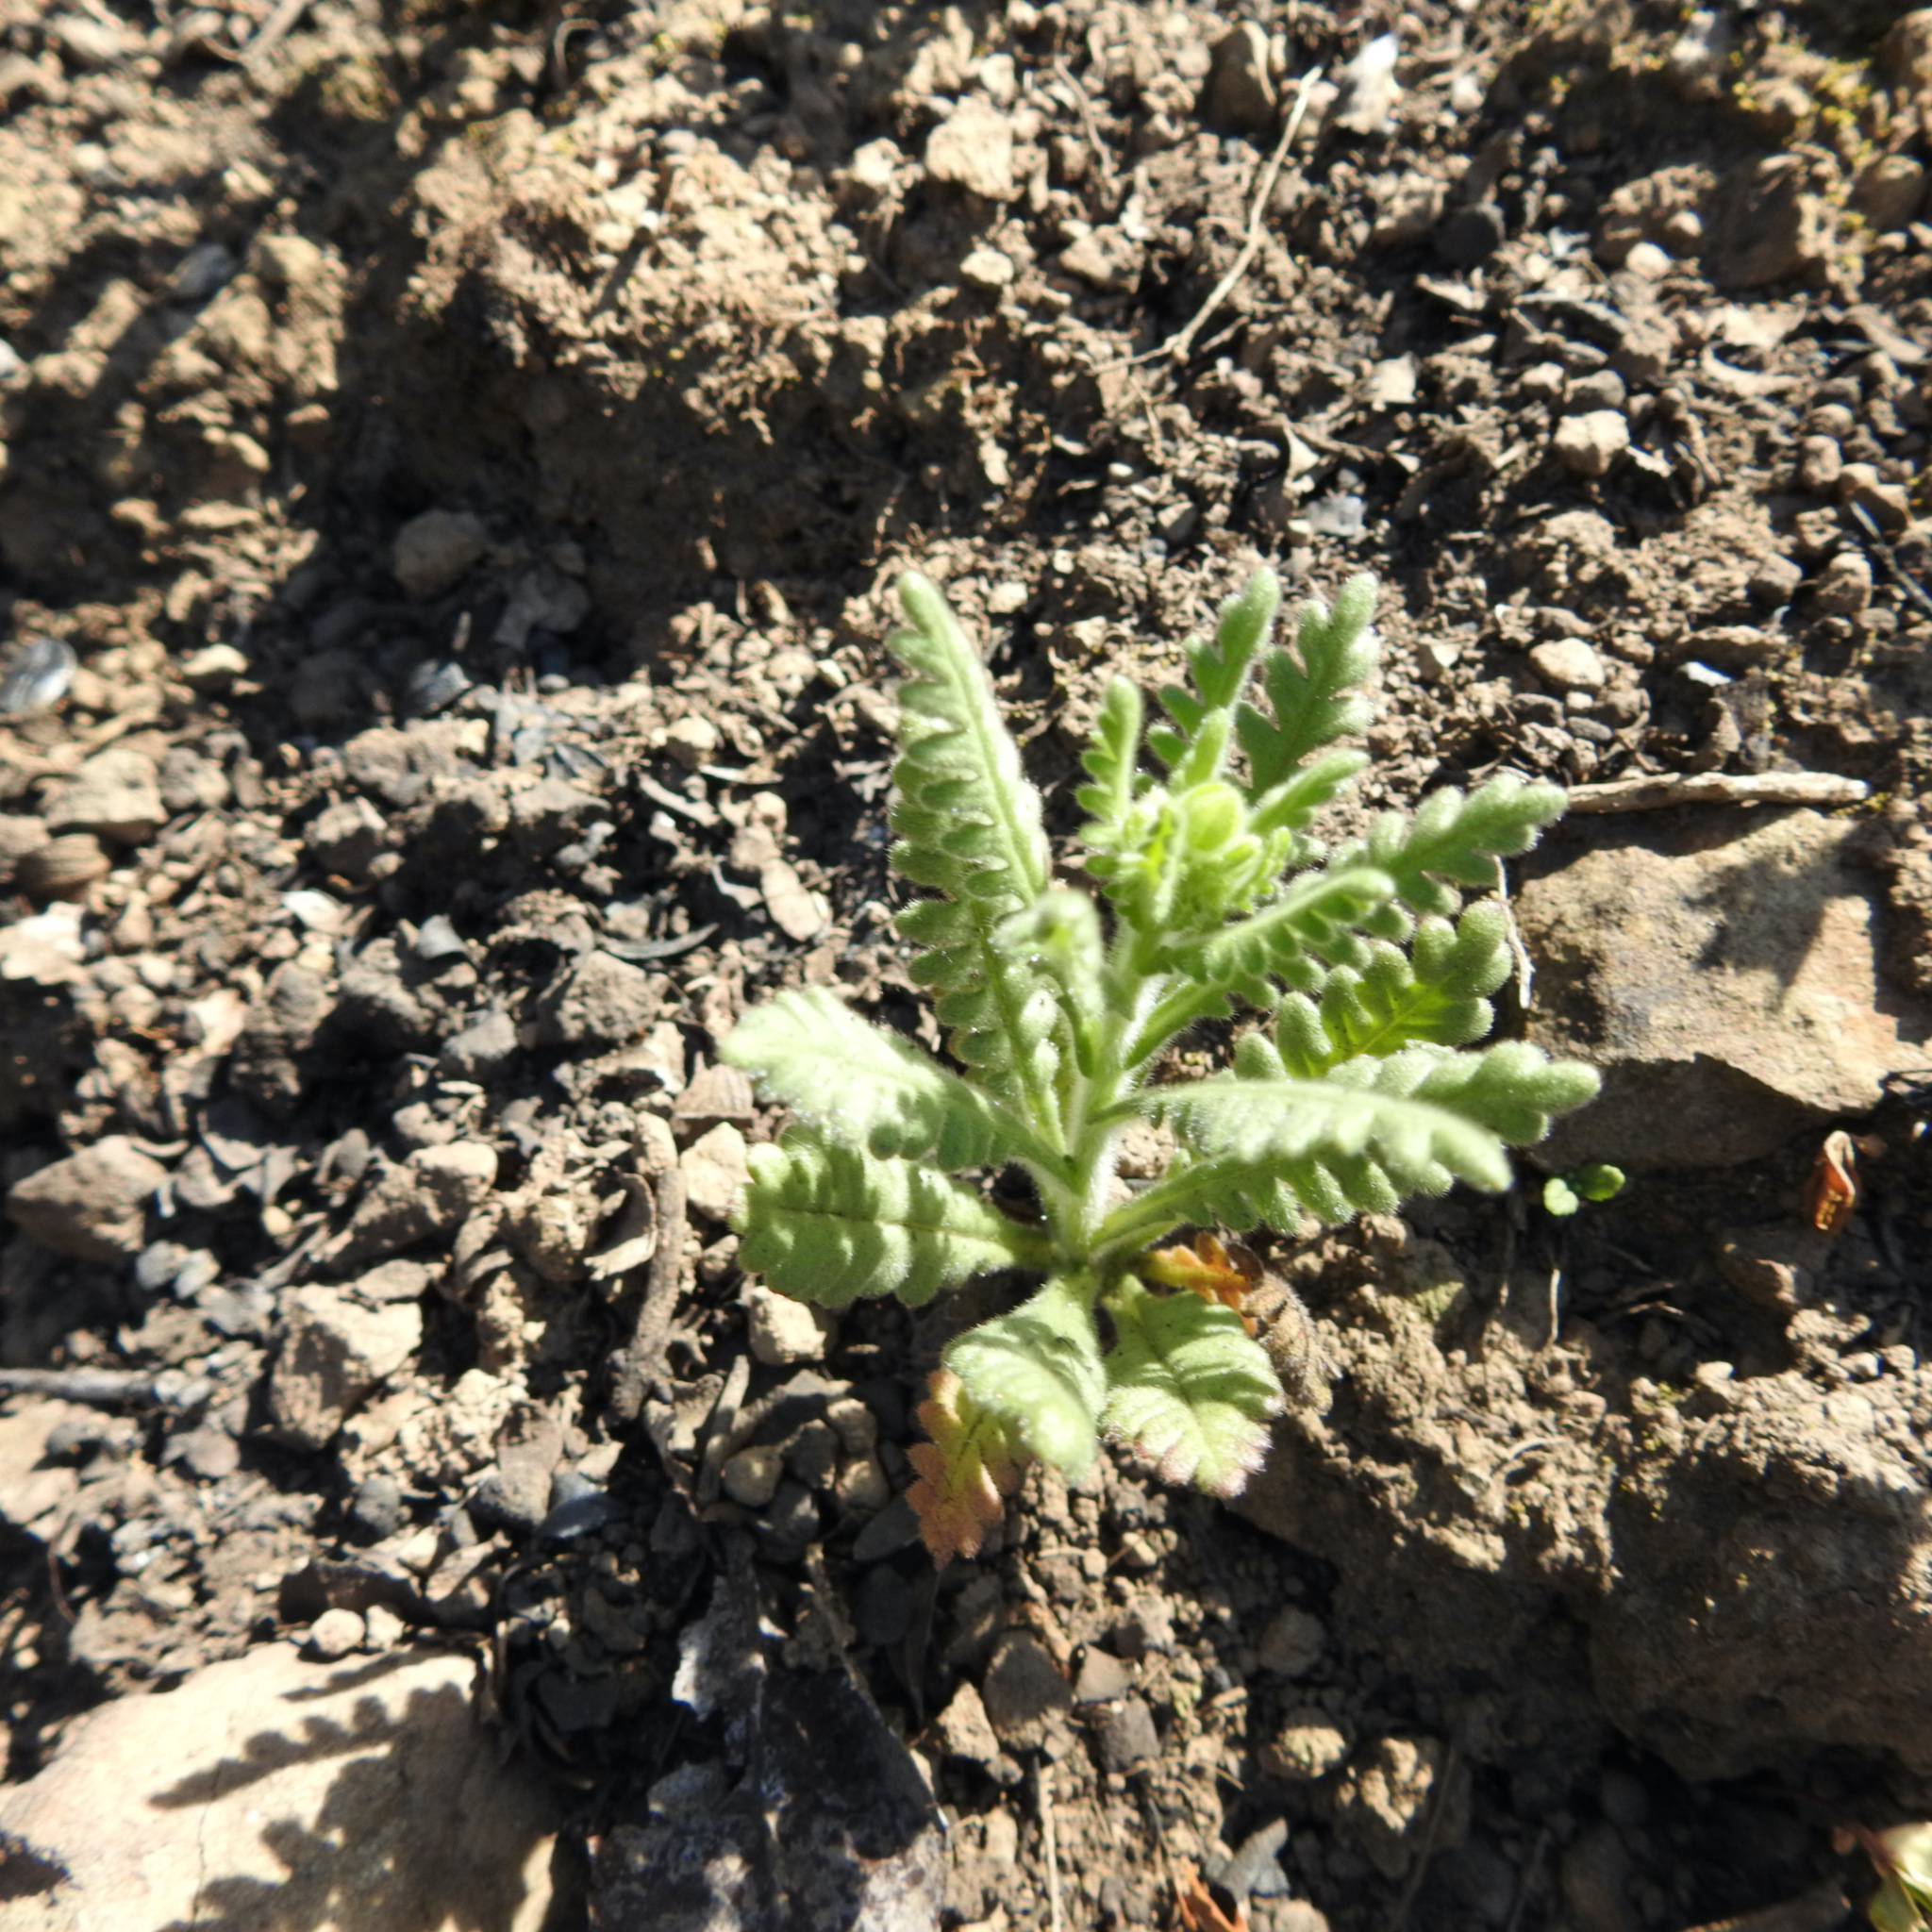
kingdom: Plantae
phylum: Tracheophyta
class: Magnoliopsida
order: Boraginales
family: Hydrophyllaceae
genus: Emmenanthe
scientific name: Emmenanthe penduliflora
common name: Whispering-bells
